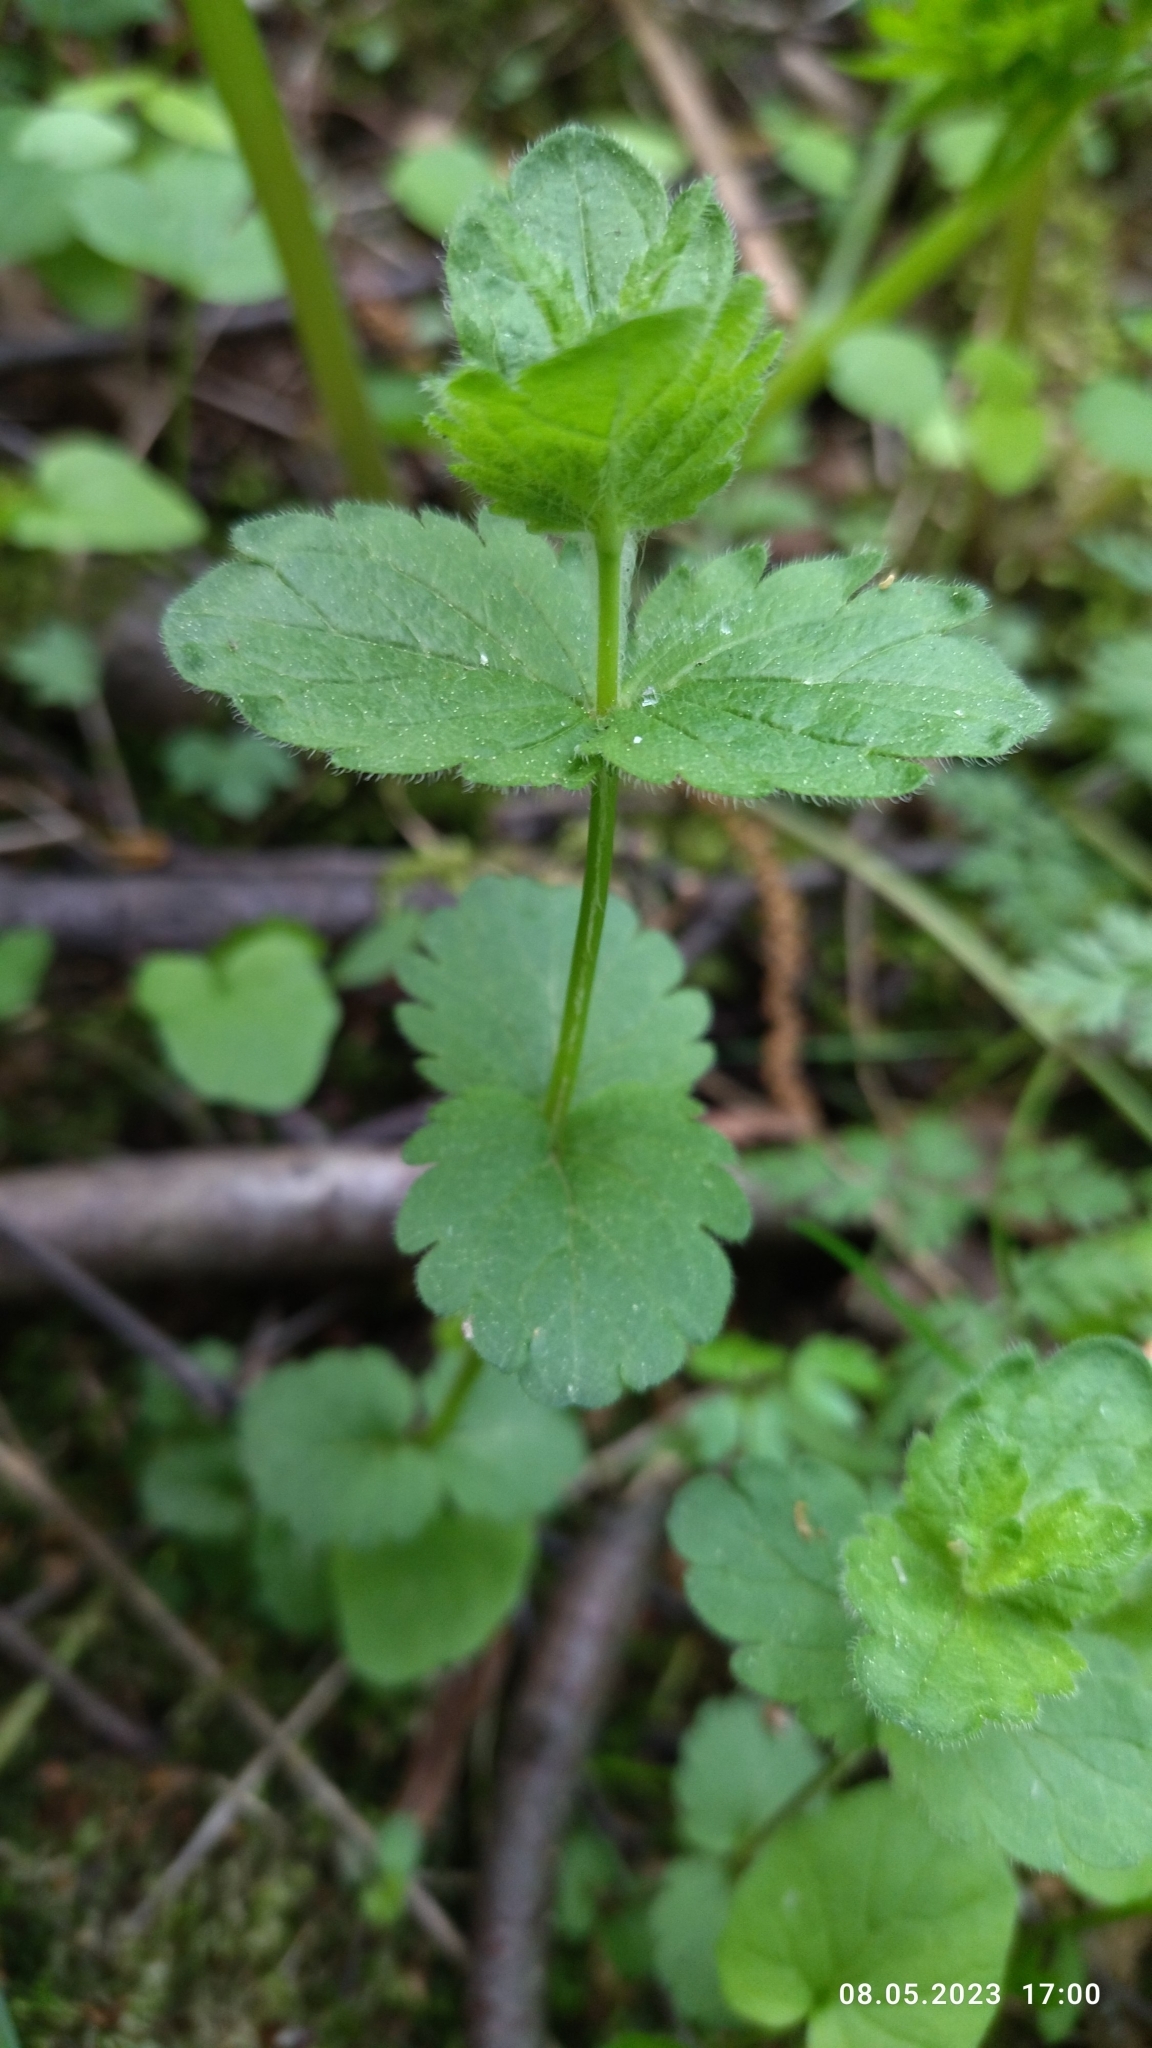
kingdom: Plantae
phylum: Tracheophyta
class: Magnoliopsida
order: Lamiales
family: Plantaginaceae
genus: Veronica
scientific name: Veronica chamaedrys
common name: Germander speedwell
